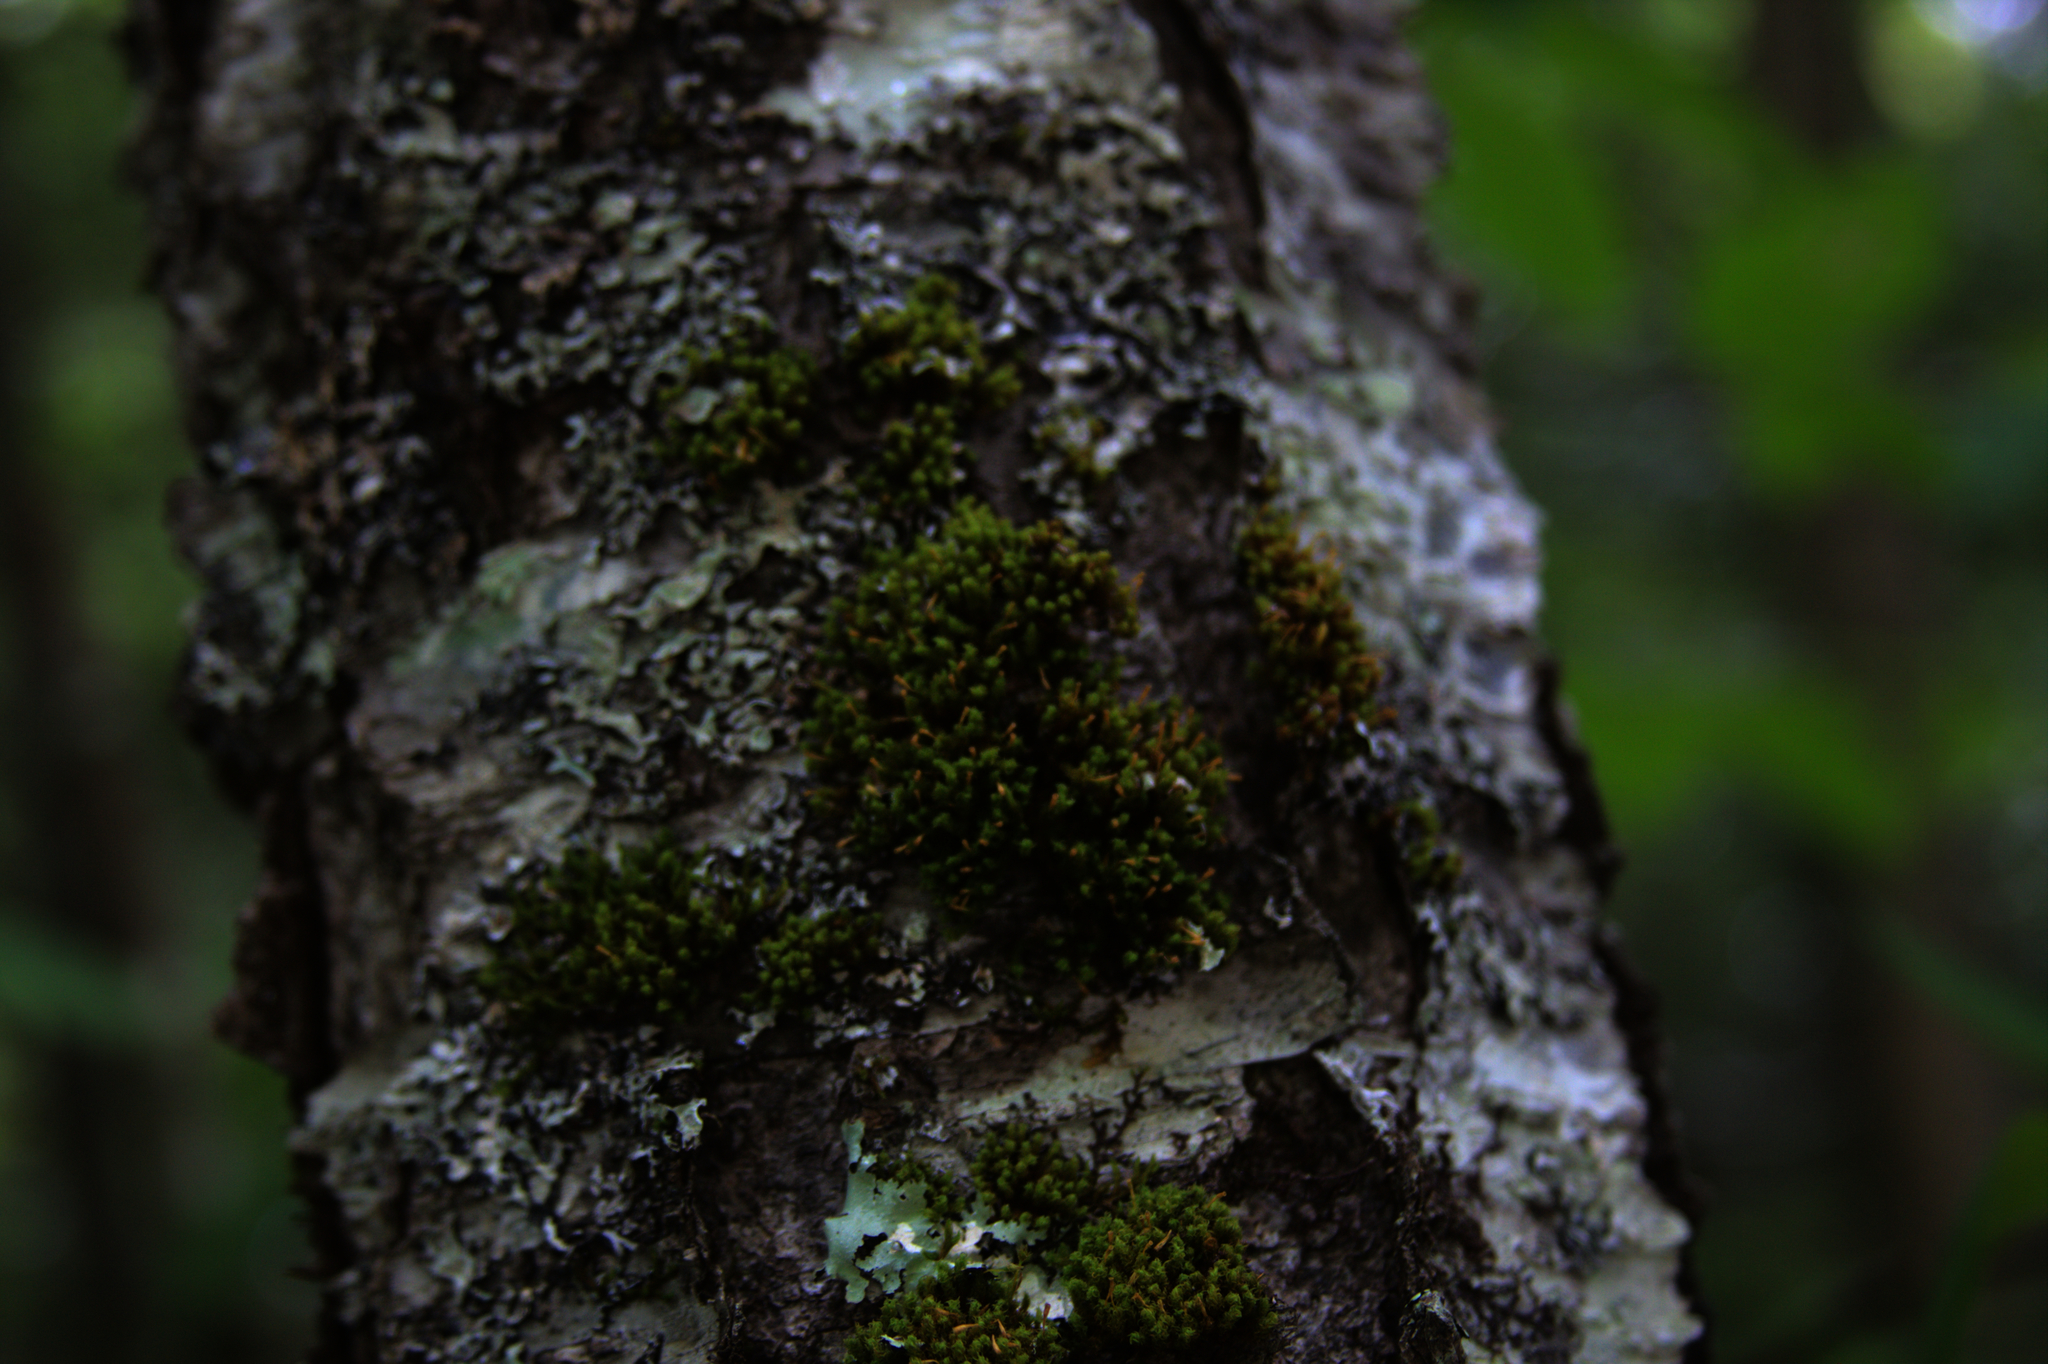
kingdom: Plantae
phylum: Bryophyta
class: Bryopsida
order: Orthotrichales
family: Orthotrichaceae
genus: Ulota
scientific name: Ulota crispa
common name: Crisped pincushion moss
